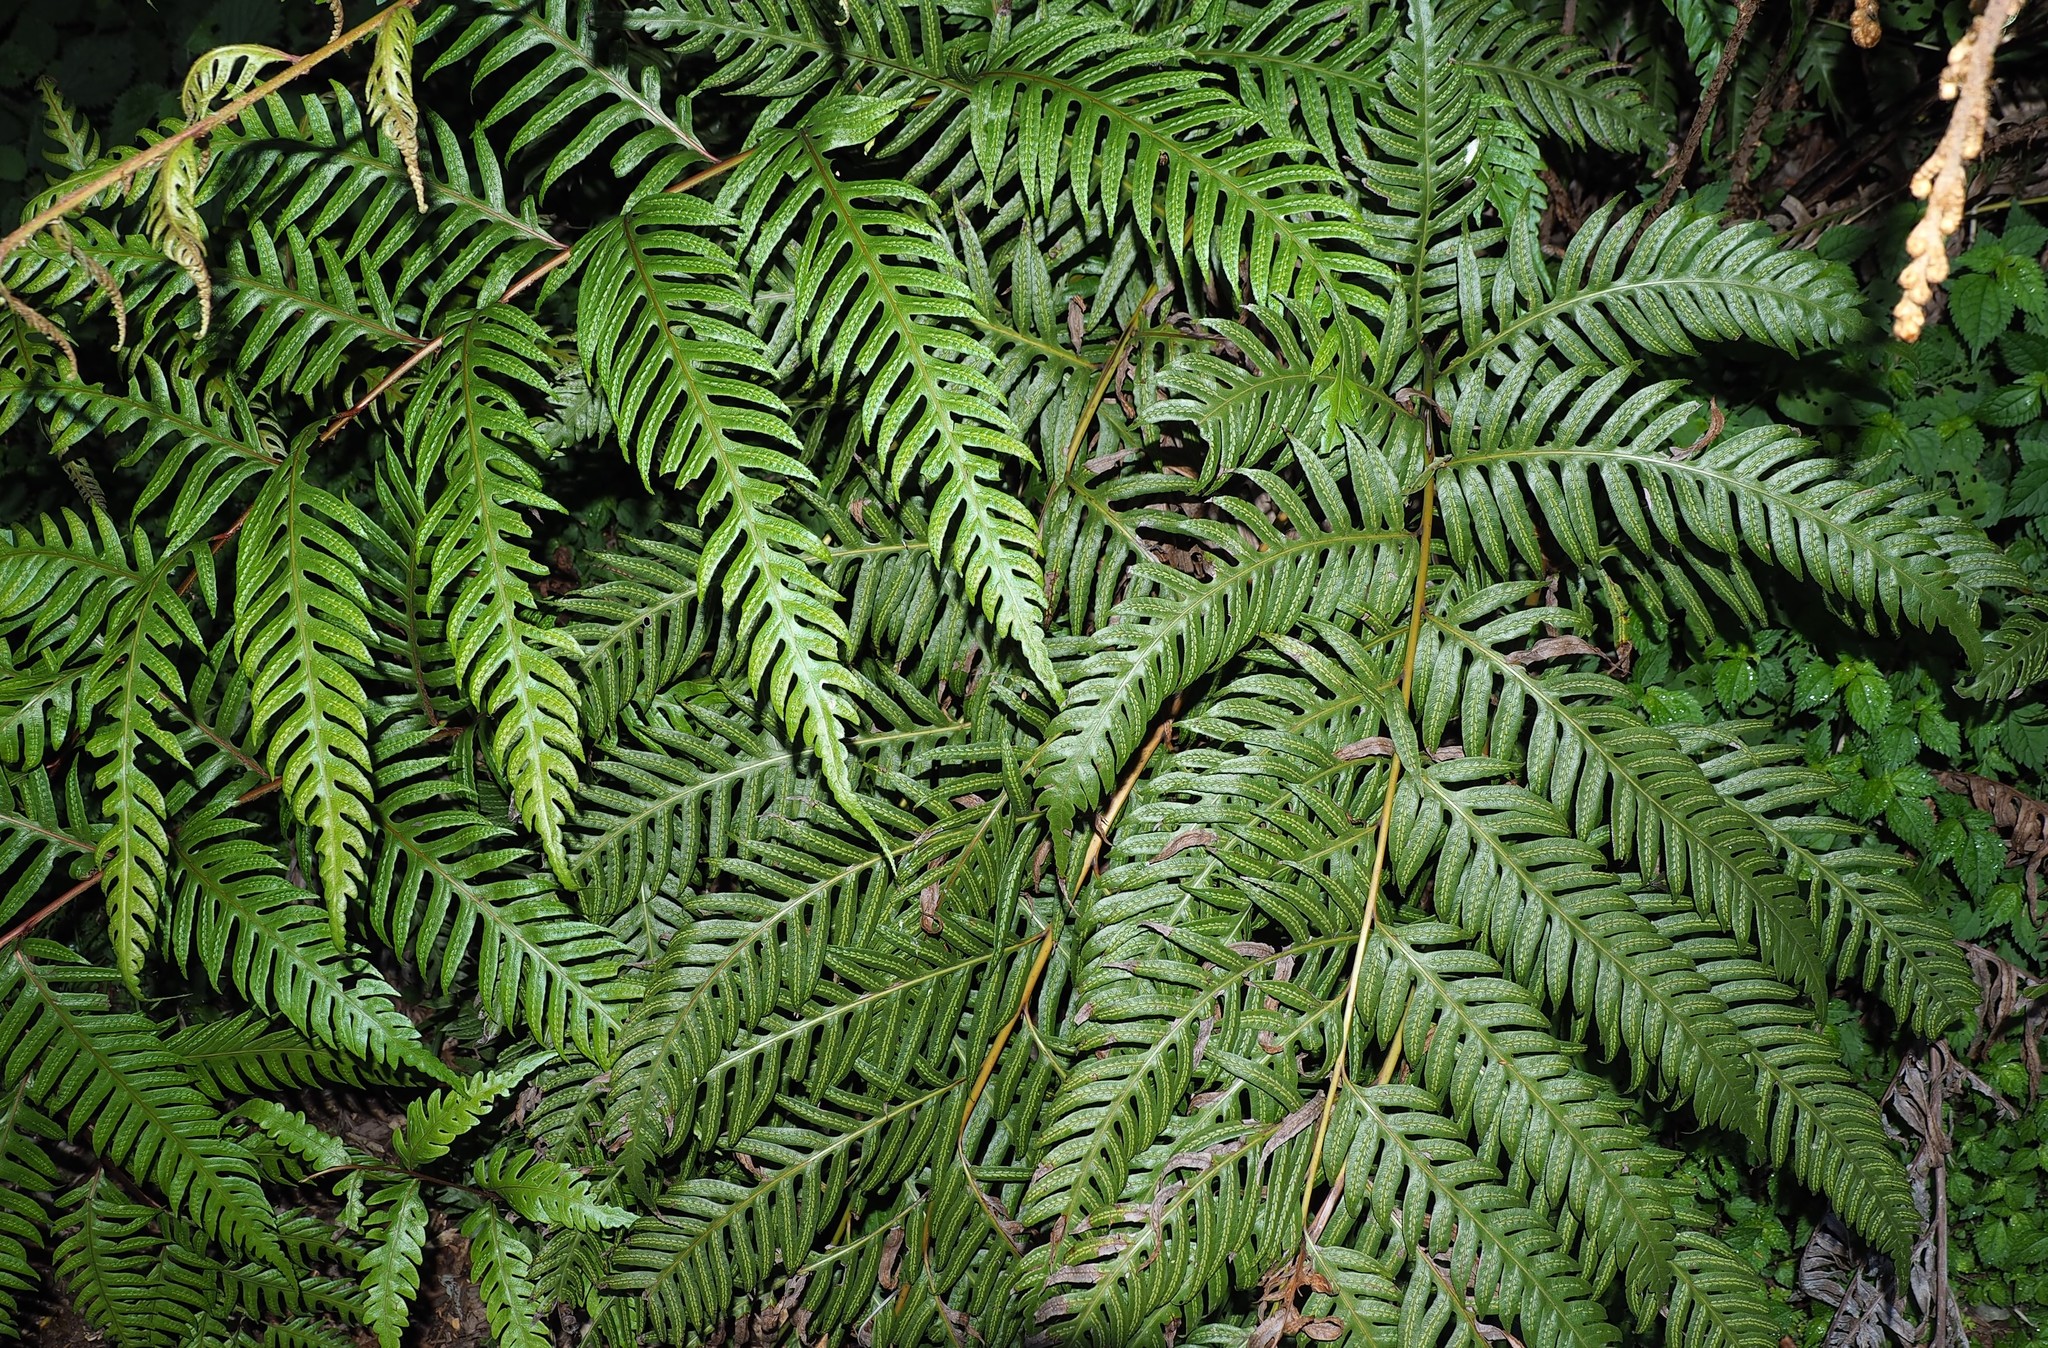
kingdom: Plantae
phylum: Tracheophyta
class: Polypodiopsida
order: Polypodiales
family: Blechnaceae
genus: Woodwardia
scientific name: Woodwardia unigemmata
